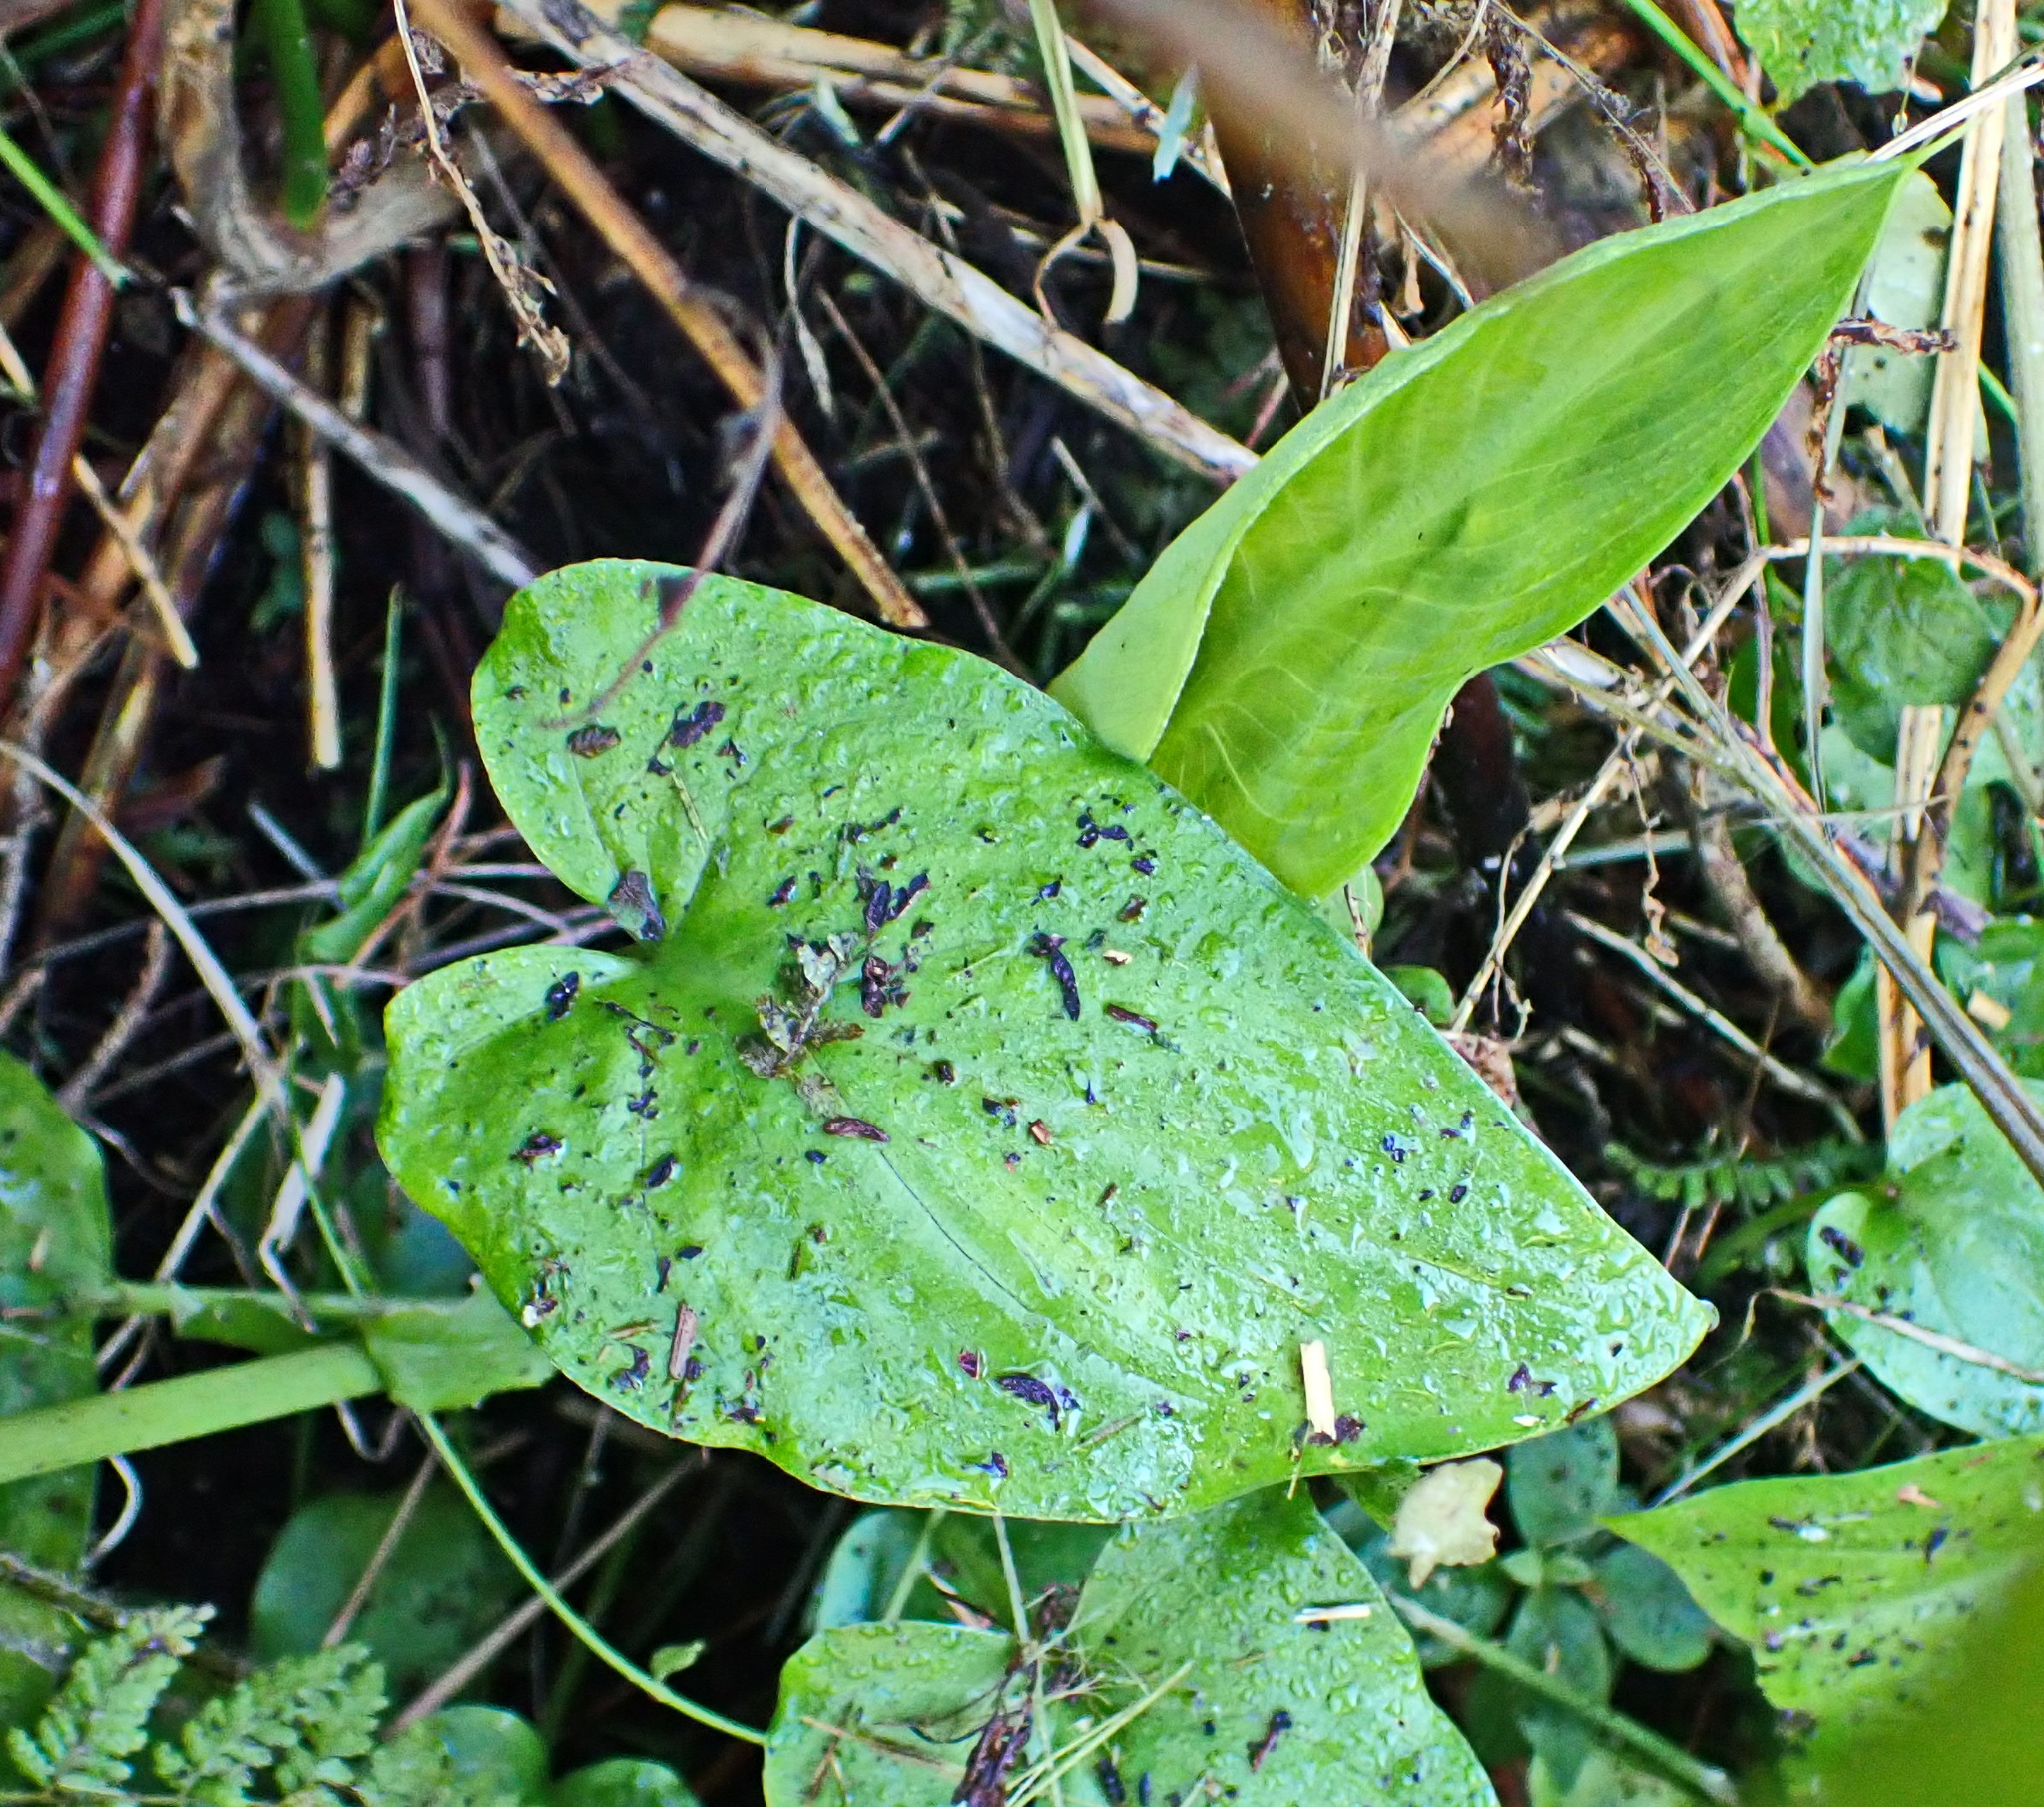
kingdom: Plantae
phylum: Tracheophyta
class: Liliopsida
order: Alismatales
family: Araceae
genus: Zantedeschia
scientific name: Zantedeschia aethiopica
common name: Altar-lily
